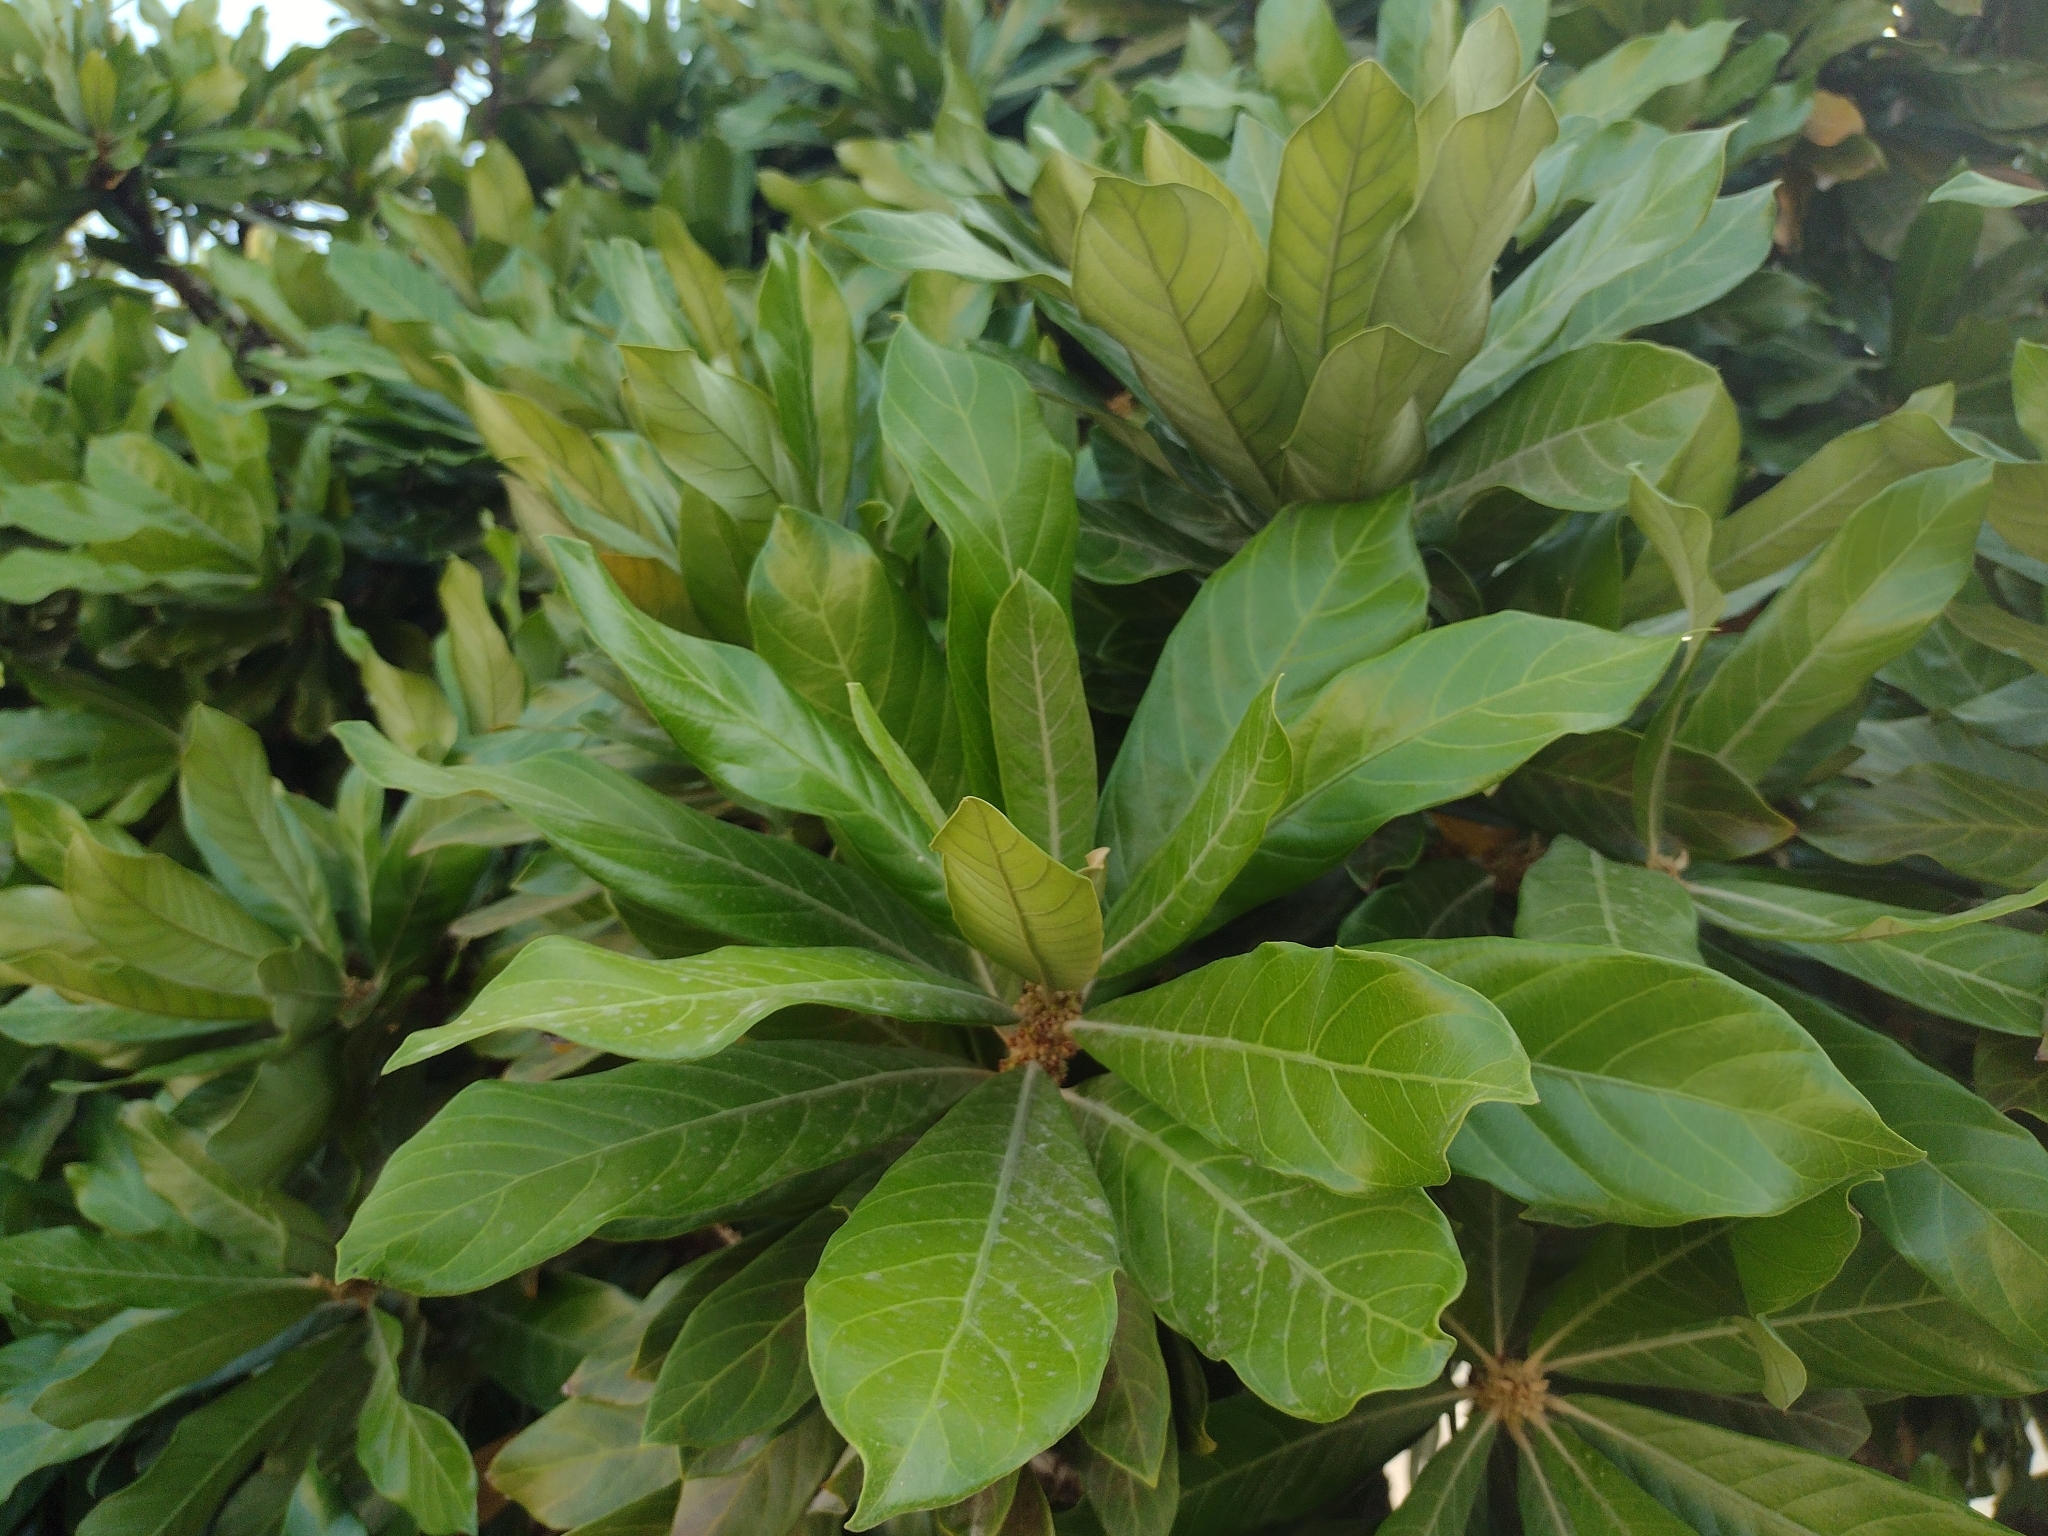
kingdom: Plantae
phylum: Tracheophyta
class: Magnoliopsida
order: Ericales
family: Sapotaceae
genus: Pouteria
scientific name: Pouteria glomerata
